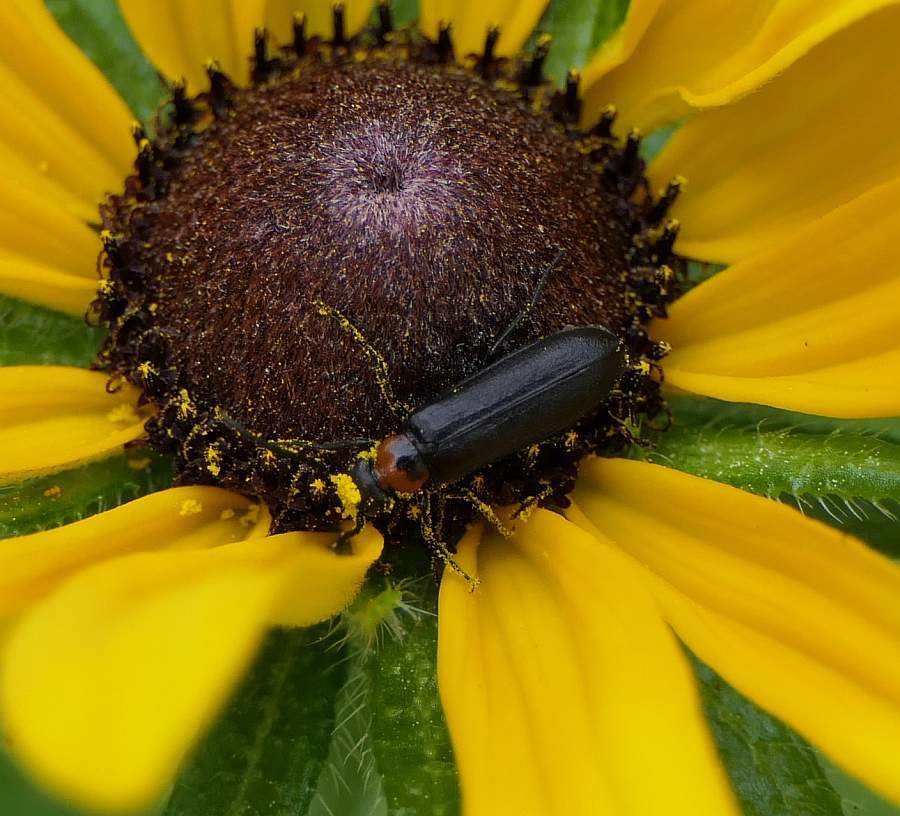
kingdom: Animalia
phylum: Arthropoda
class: Insecta
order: Coleoptera
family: Meloidae
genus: Nemognatha
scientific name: Nemognatha nemorensis
